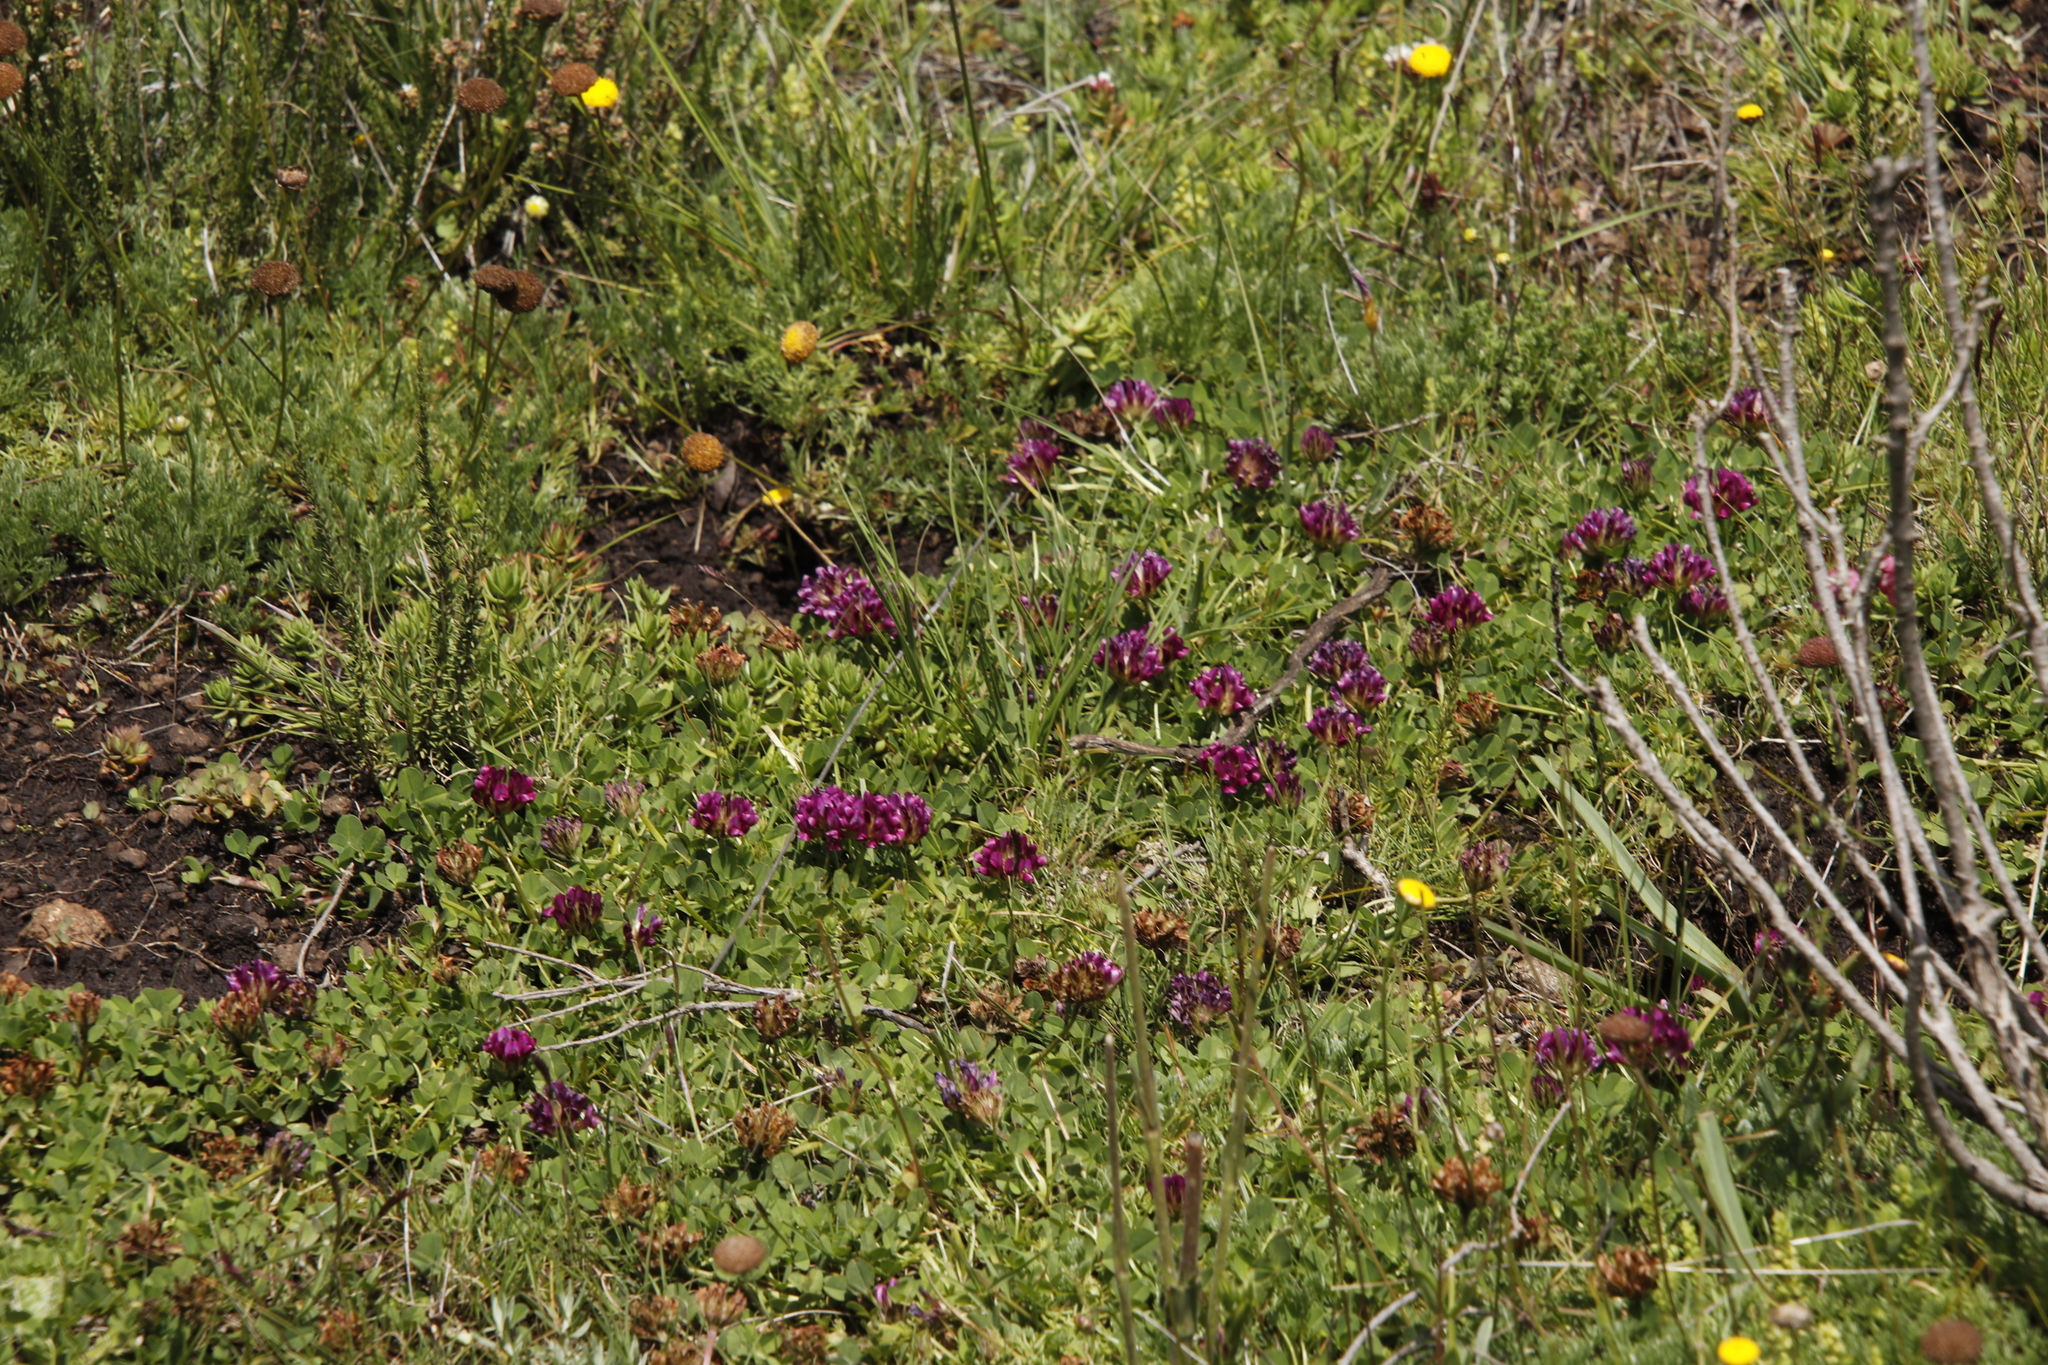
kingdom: Plantae
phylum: Tracheophyta
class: Magnoliopsida
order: Fabales
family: Fabaceae
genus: Trifolium
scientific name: Trifolium burchellianum
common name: Burchell's clover
